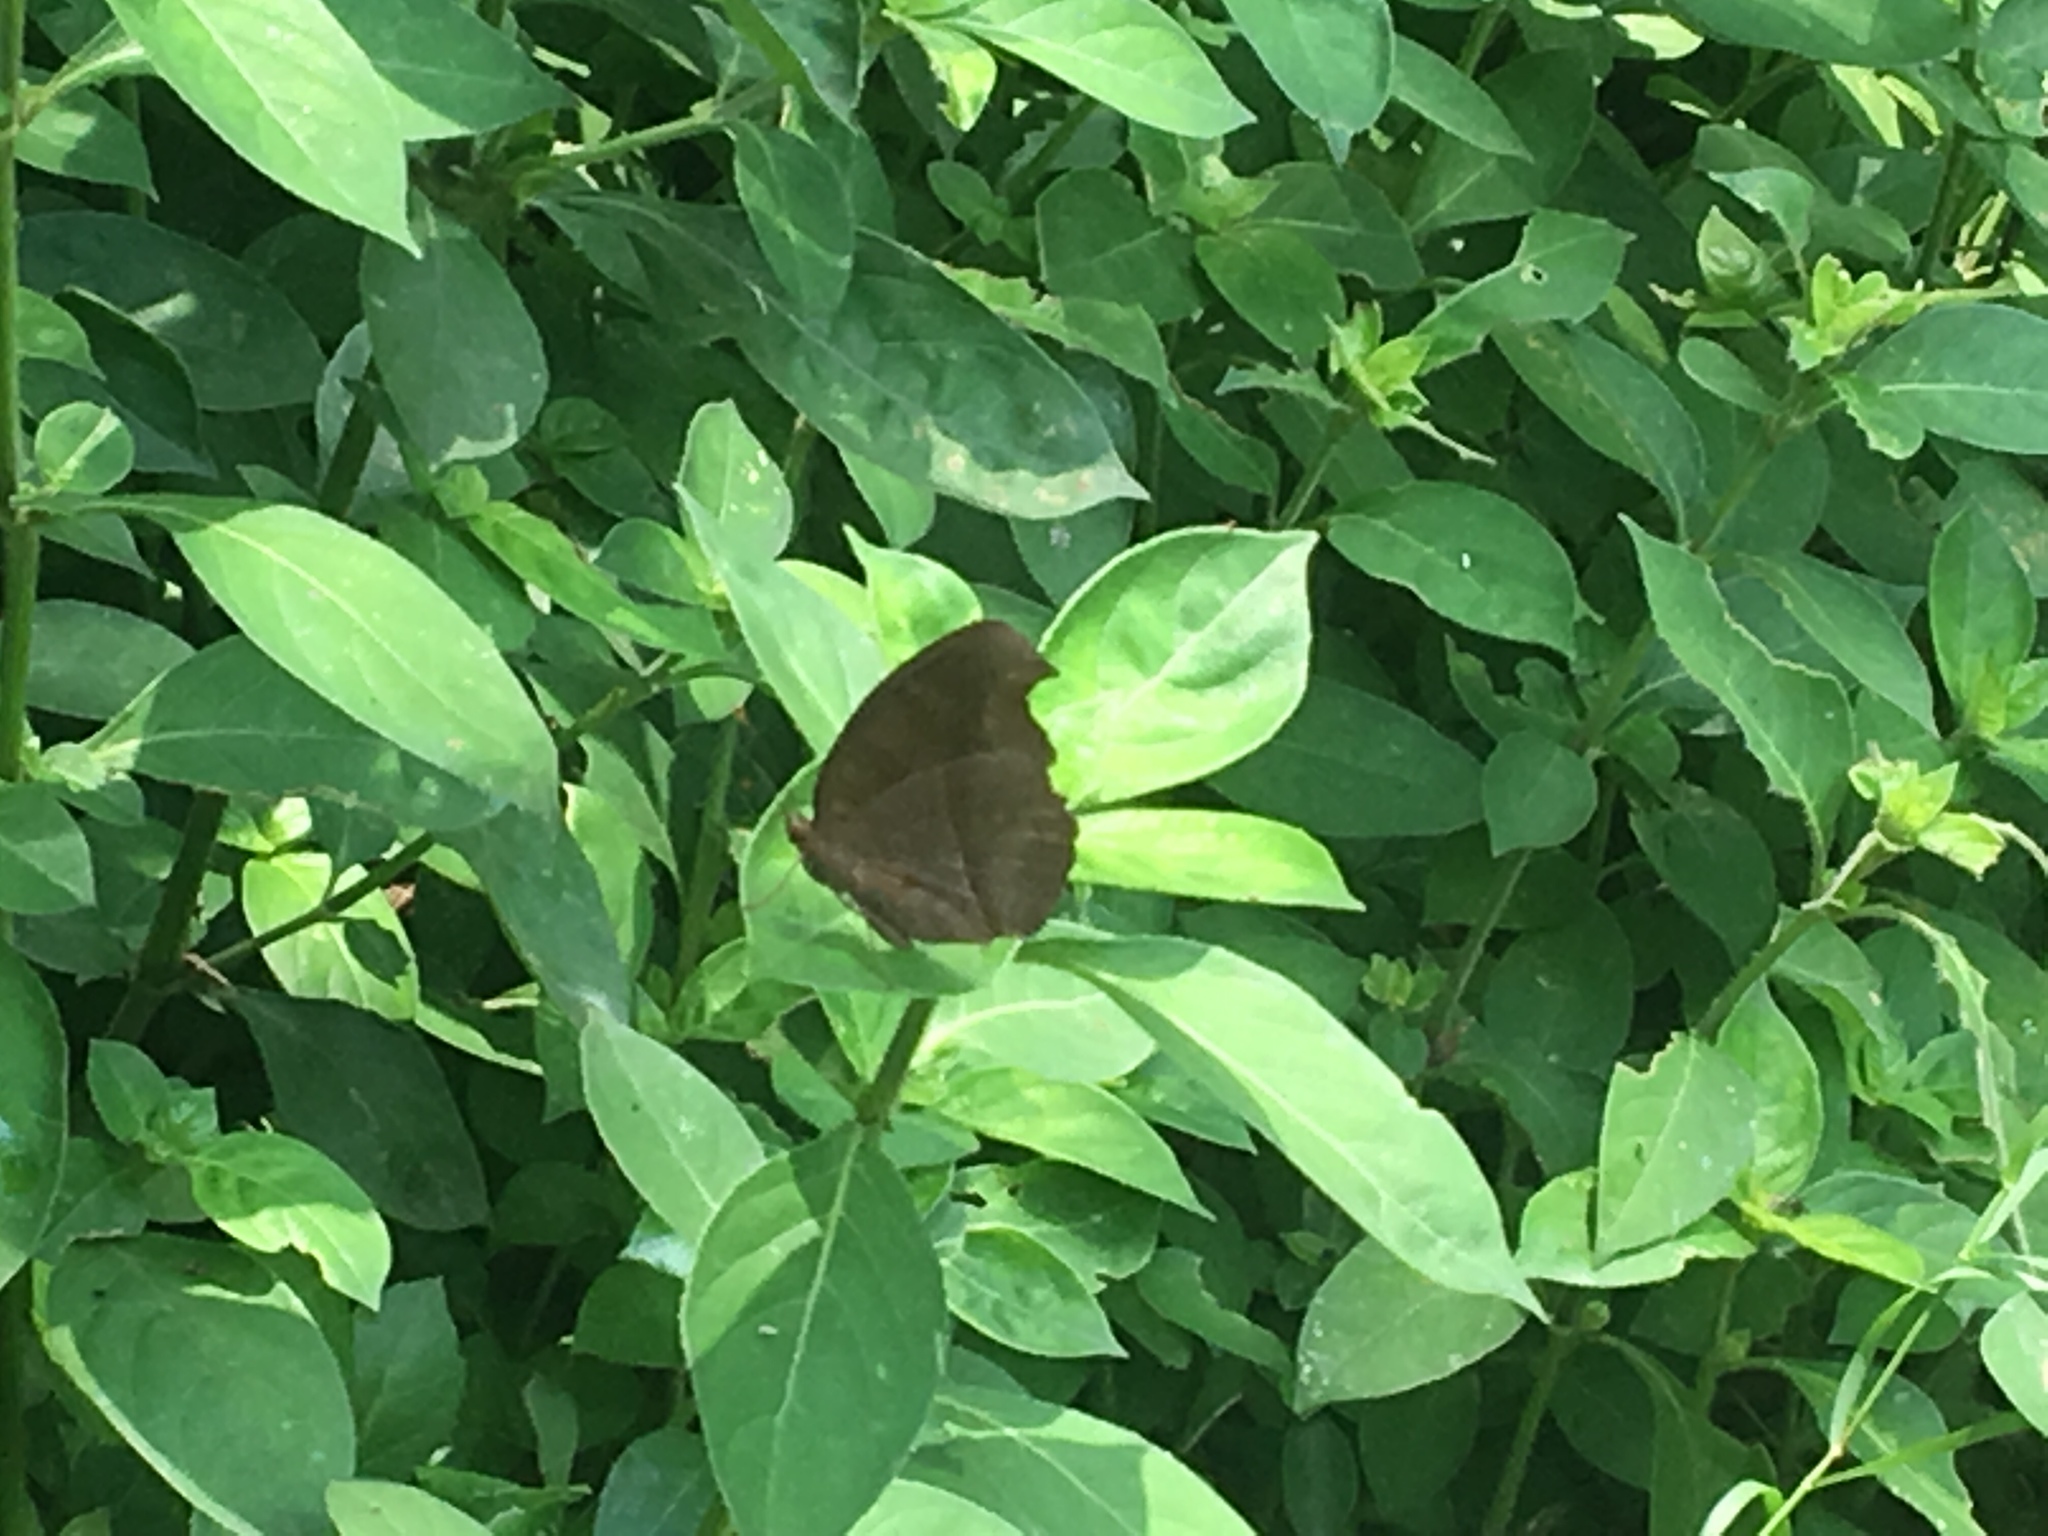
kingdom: Animalia
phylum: Arthropoda
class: Insecta
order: Lepidoptera
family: Nymphalidae
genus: Junonia
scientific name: Junonia iphita
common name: Chocolate pansy
